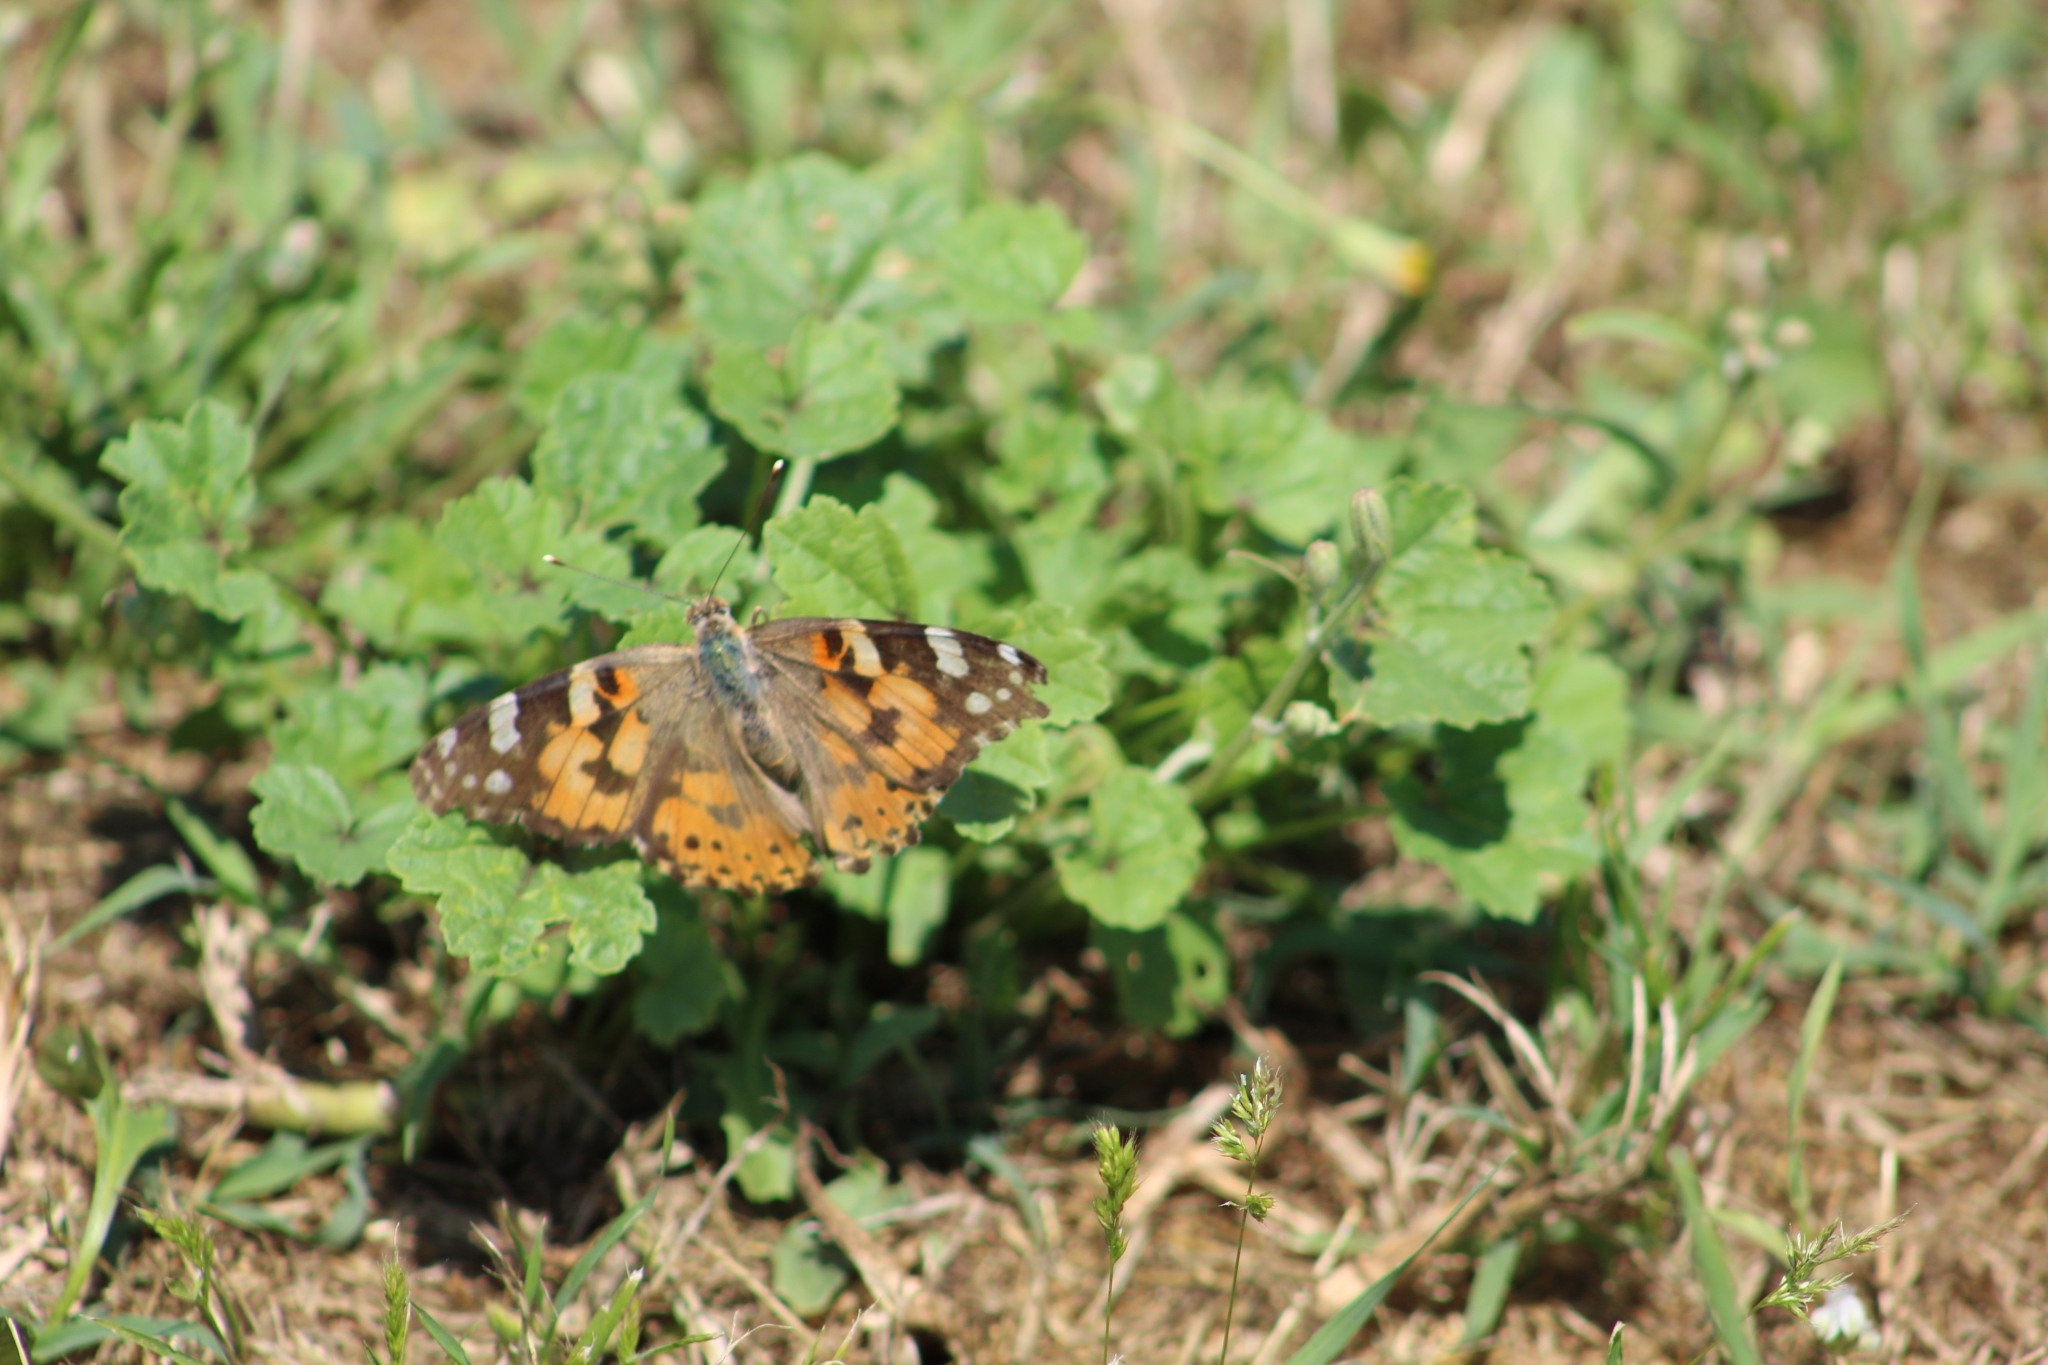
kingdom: Animalia
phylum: Arthropoda
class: Insecta
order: Lepidoptera
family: Nymphalidae
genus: Vanessa
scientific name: Vanessa cardui
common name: Painted lady
